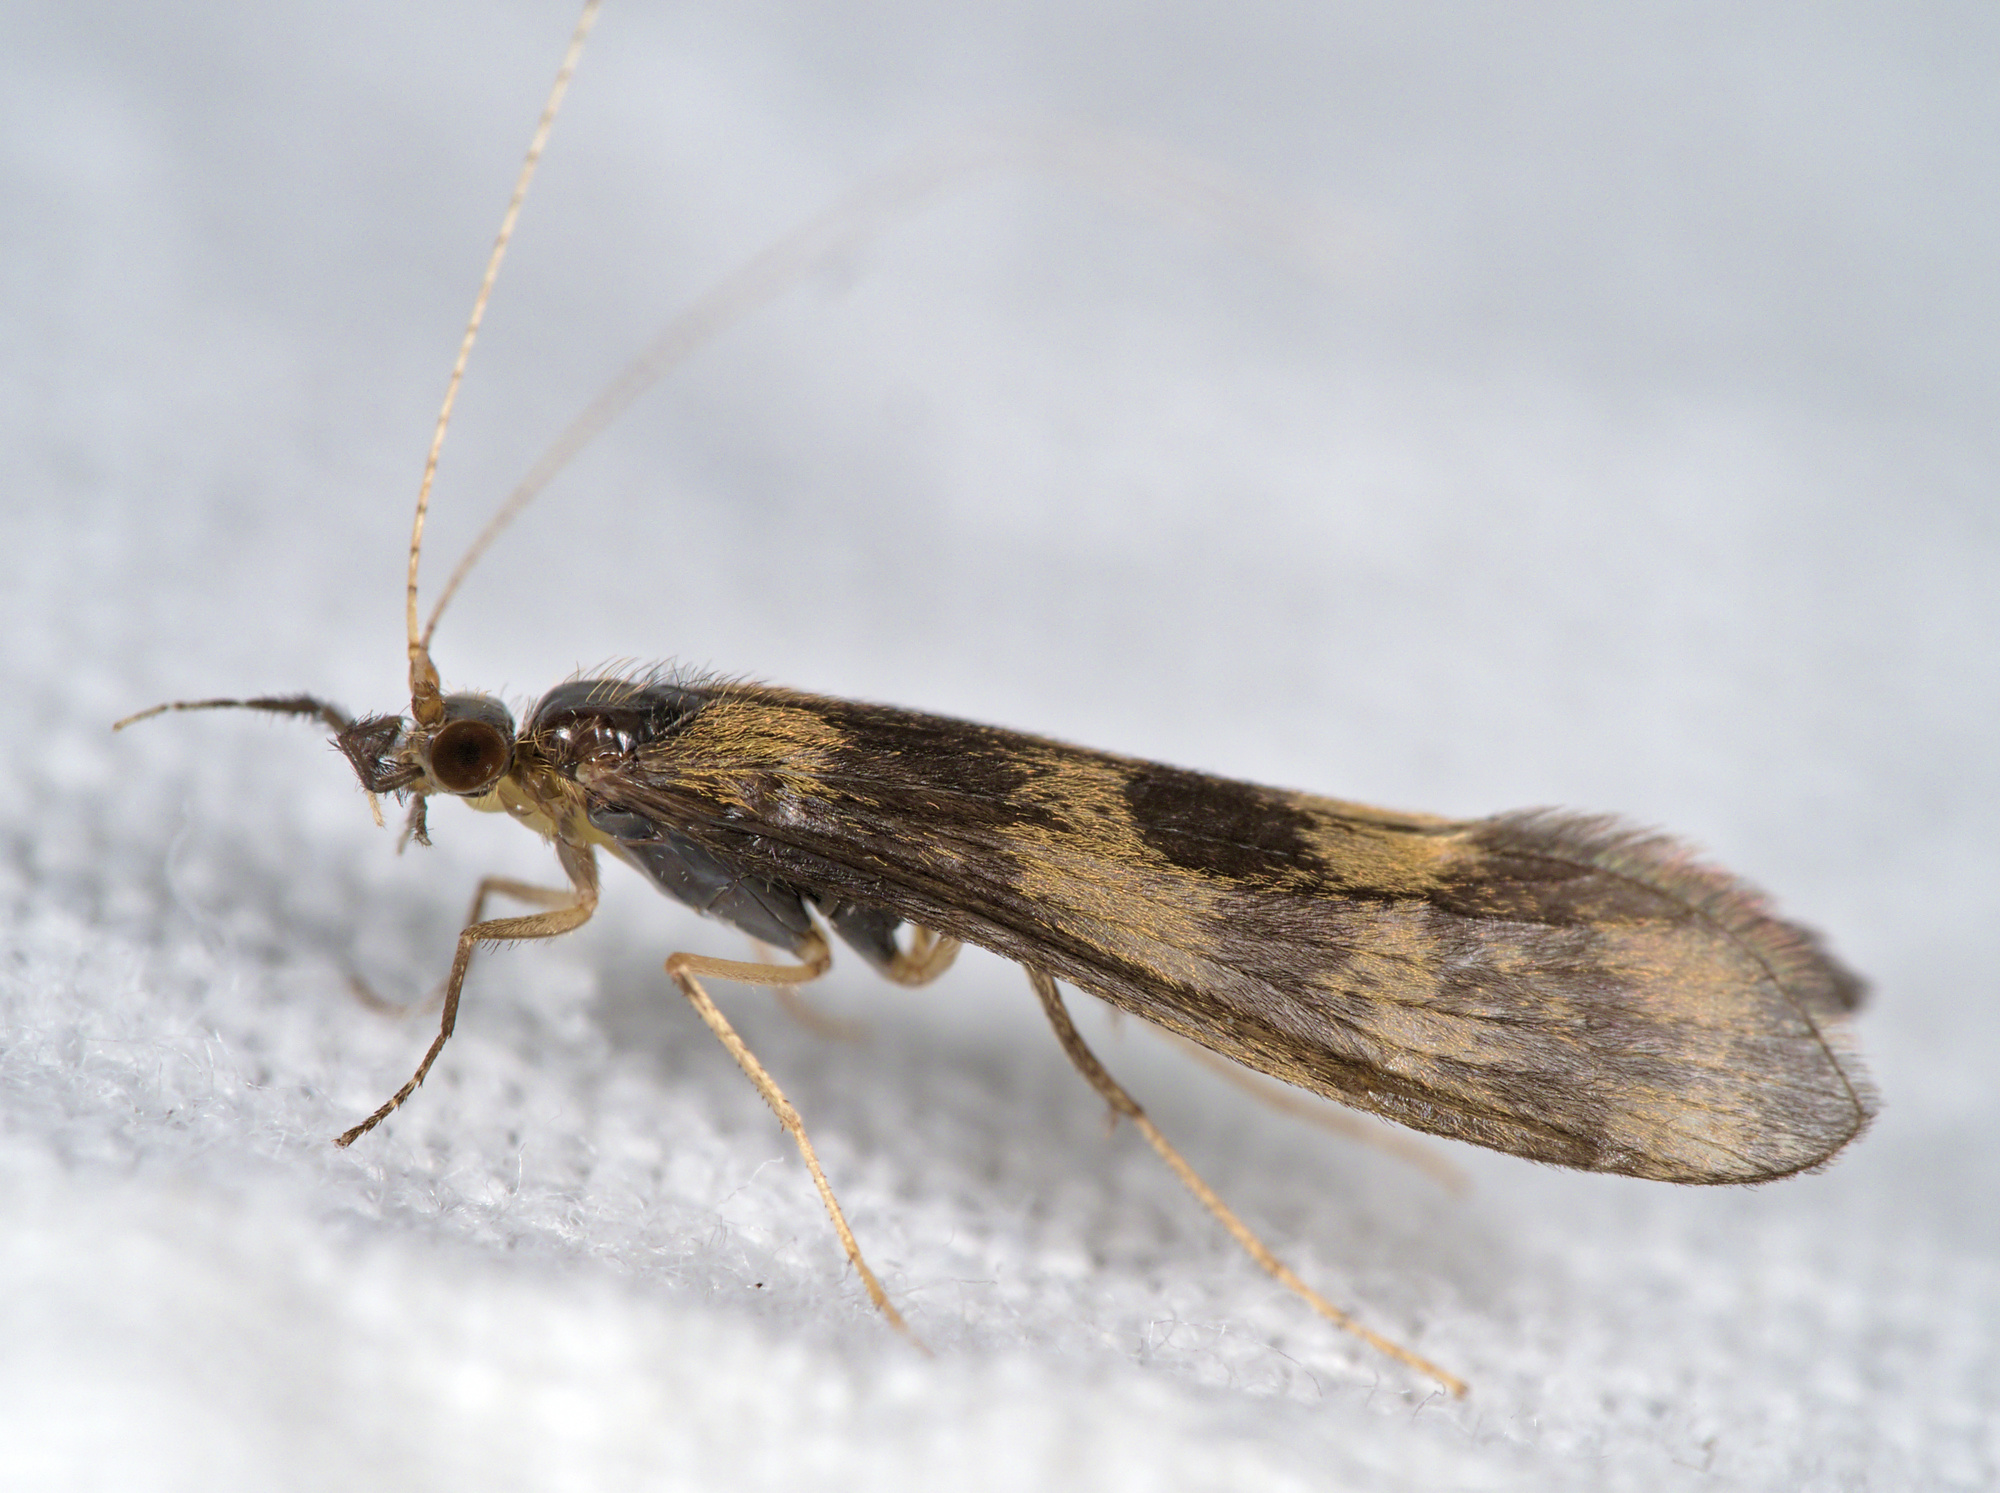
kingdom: Animalia
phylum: Arthropoda
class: Insecta
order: Trichoptera
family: Leptoceridae
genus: Mystacides
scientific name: Mystacides longicornis
